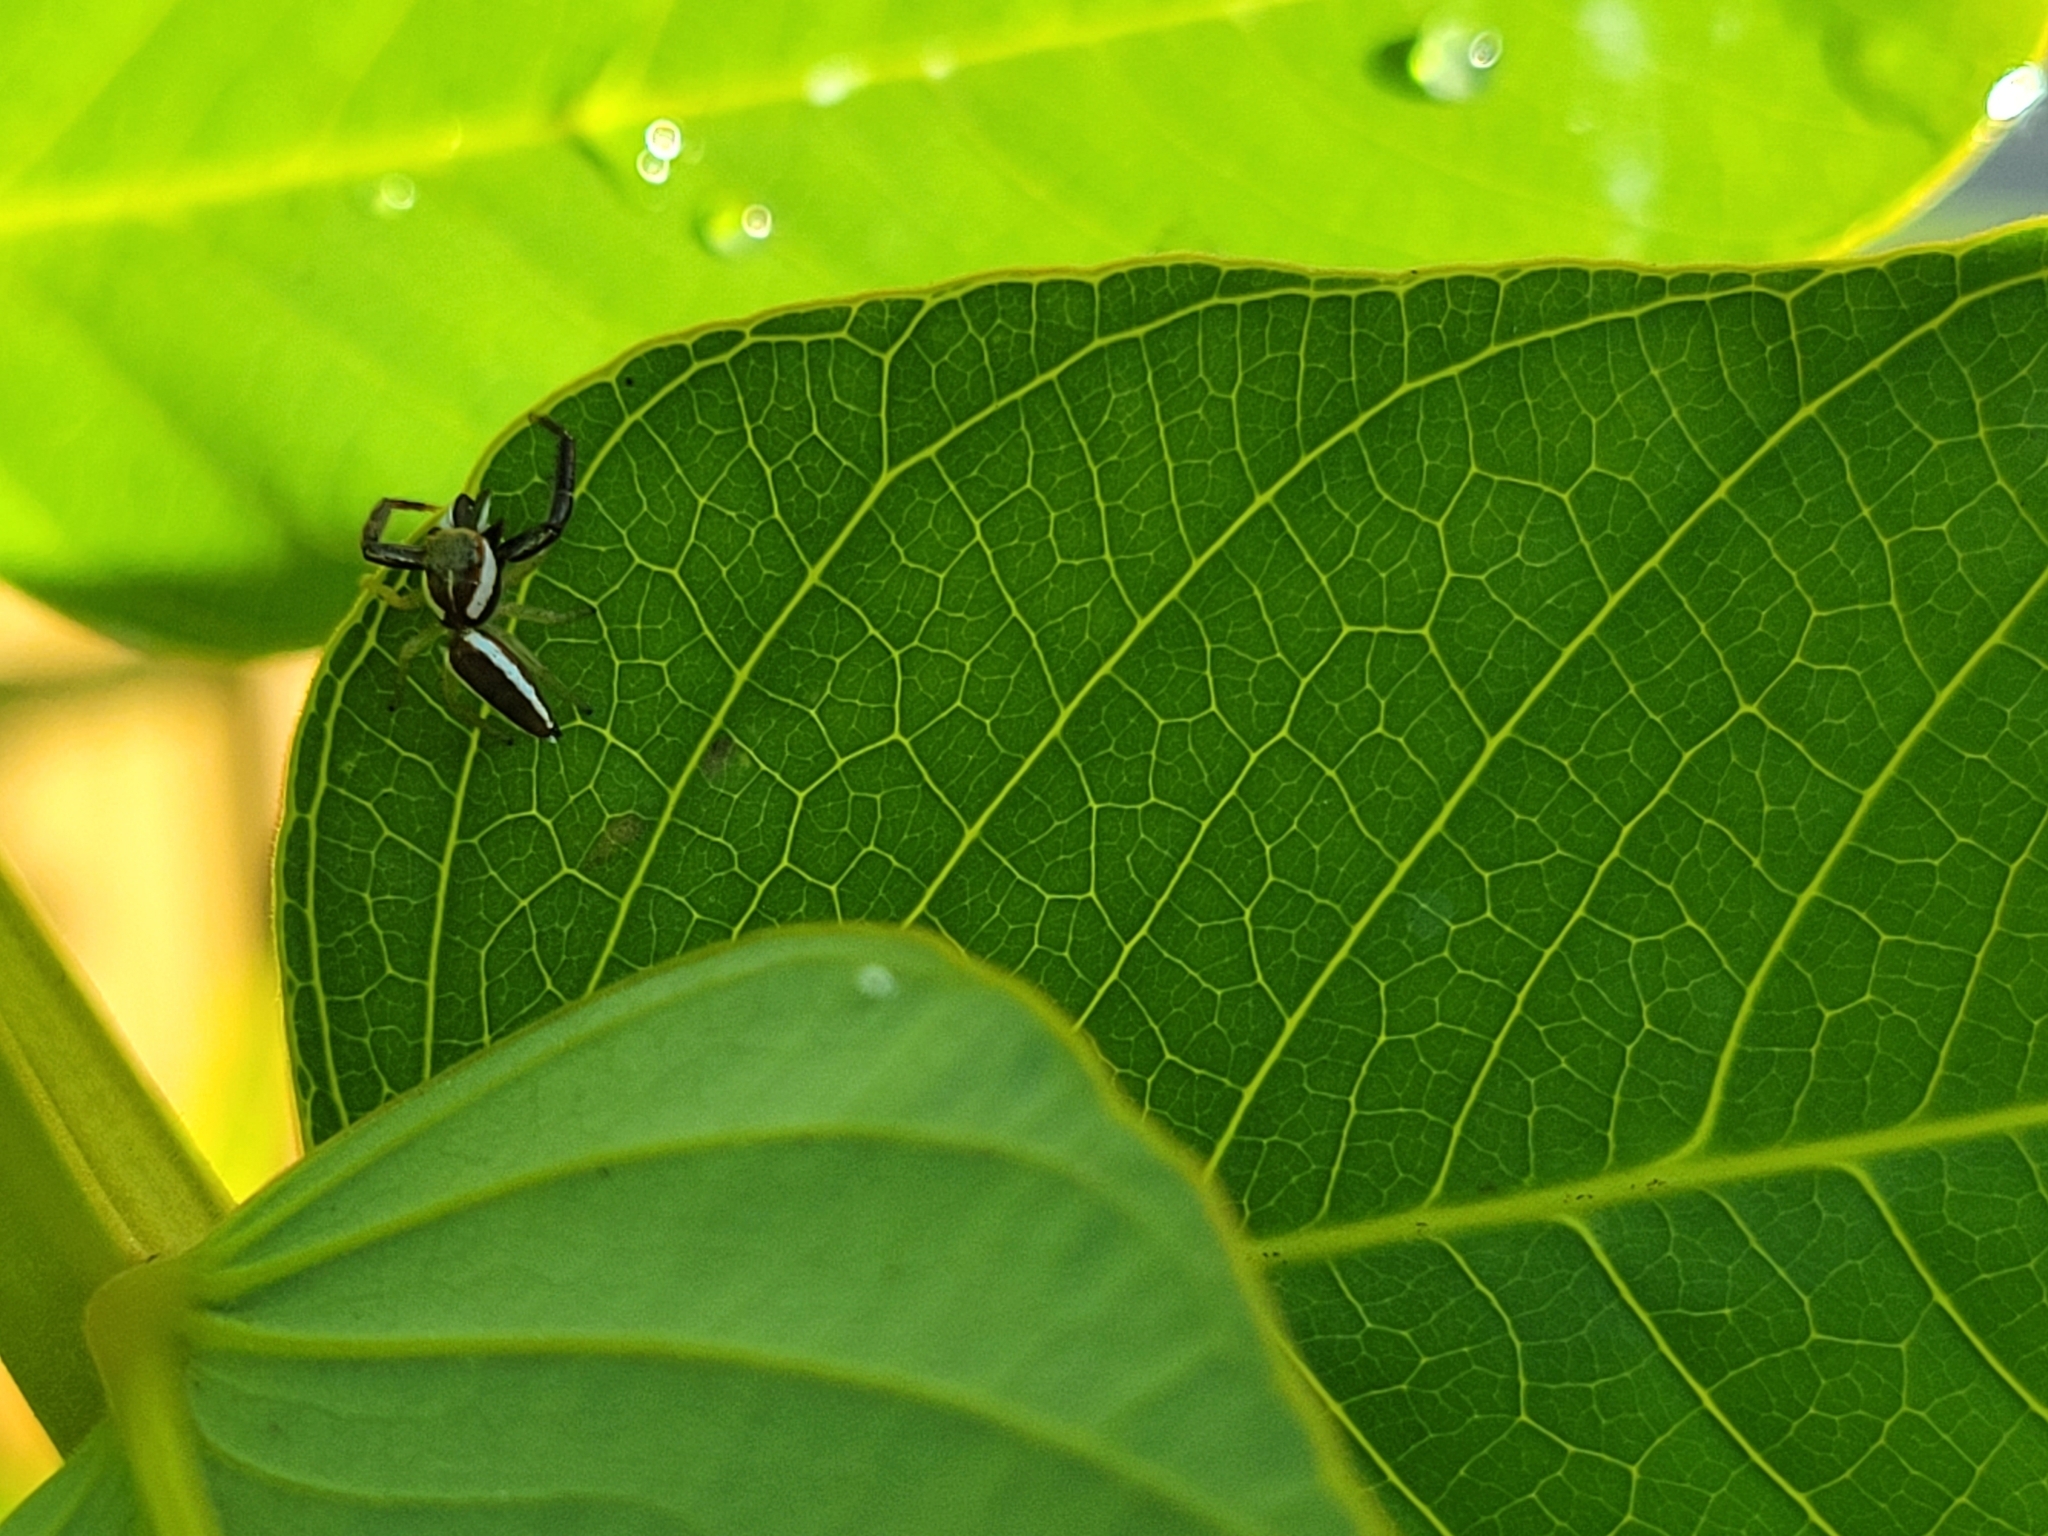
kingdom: Animalia
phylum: Arthropoda
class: Arachnida
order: Araneae
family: Salticidae
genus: Hentzia
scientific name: Hentzia palmarum
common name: Common hentz jumping spider
